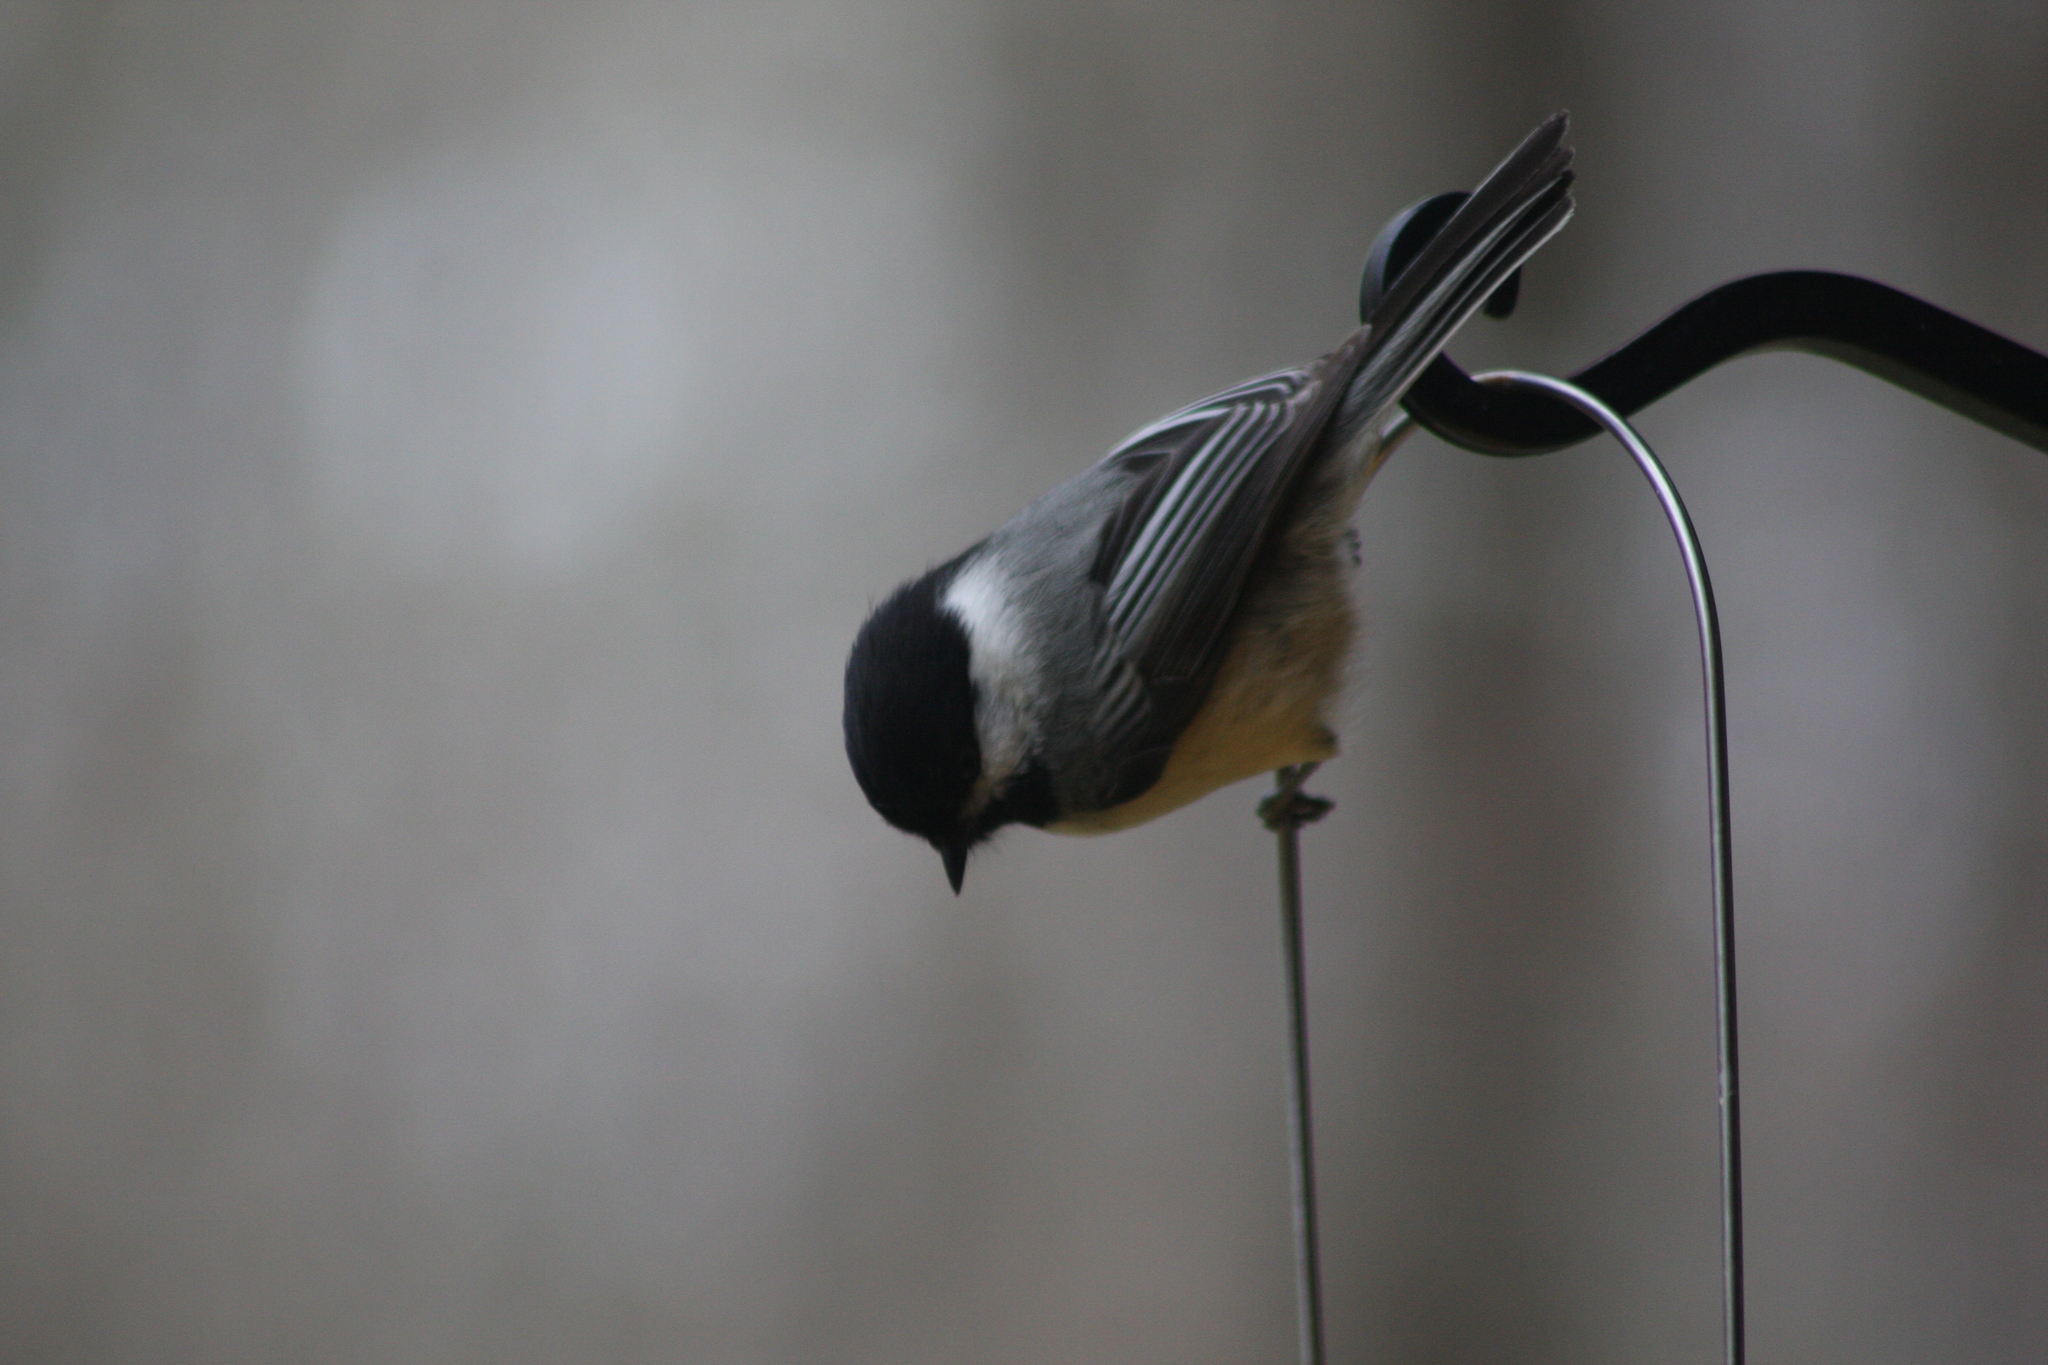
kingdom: Animalia
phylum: Chordata
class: Aves
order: Passeriformes
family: Paridae
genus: Poecile
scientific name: Poecile atricapillus
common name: Black-capped chickadee
